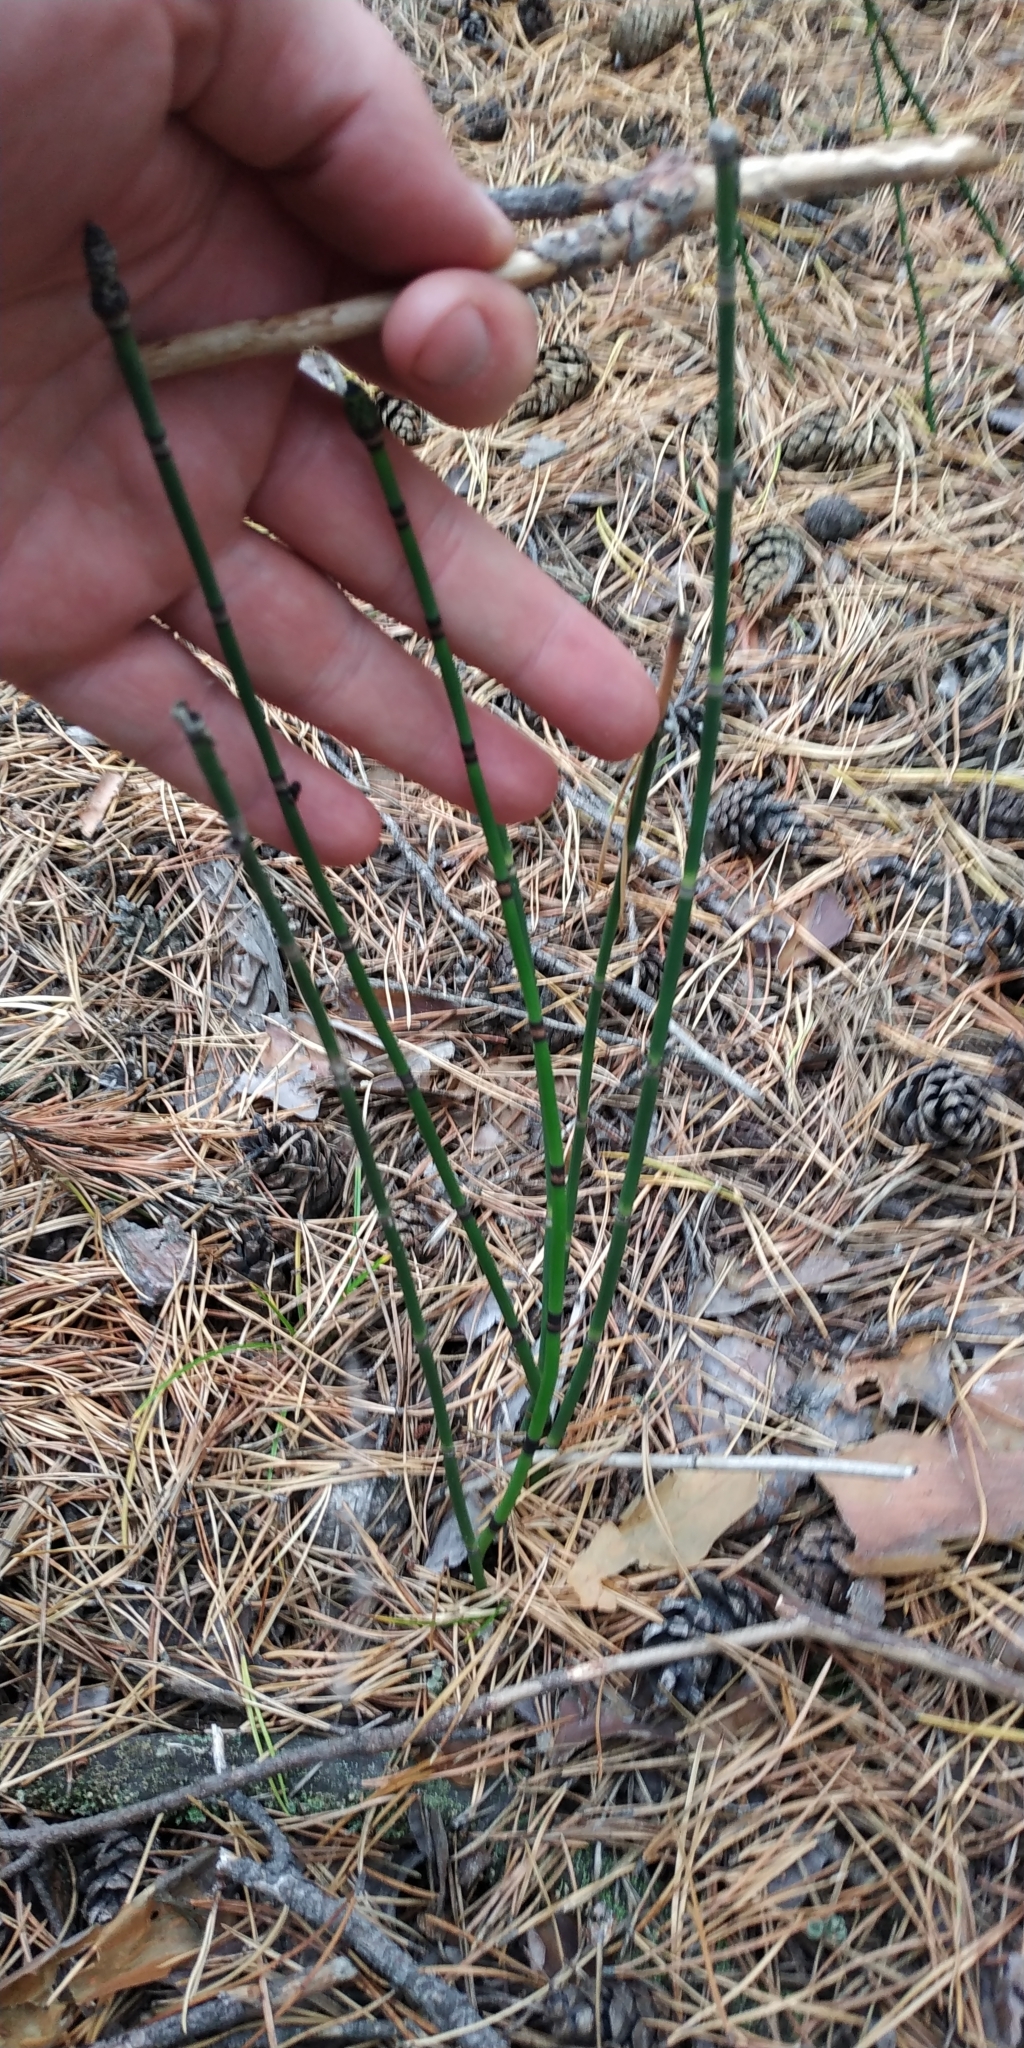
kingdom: Plantae
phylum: Tracheophyta
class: Polypodiopsida
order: Equisetales
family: Equisetaceae
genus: Equisetum
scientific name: Equisetum hyemale
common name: Rough horsetail
